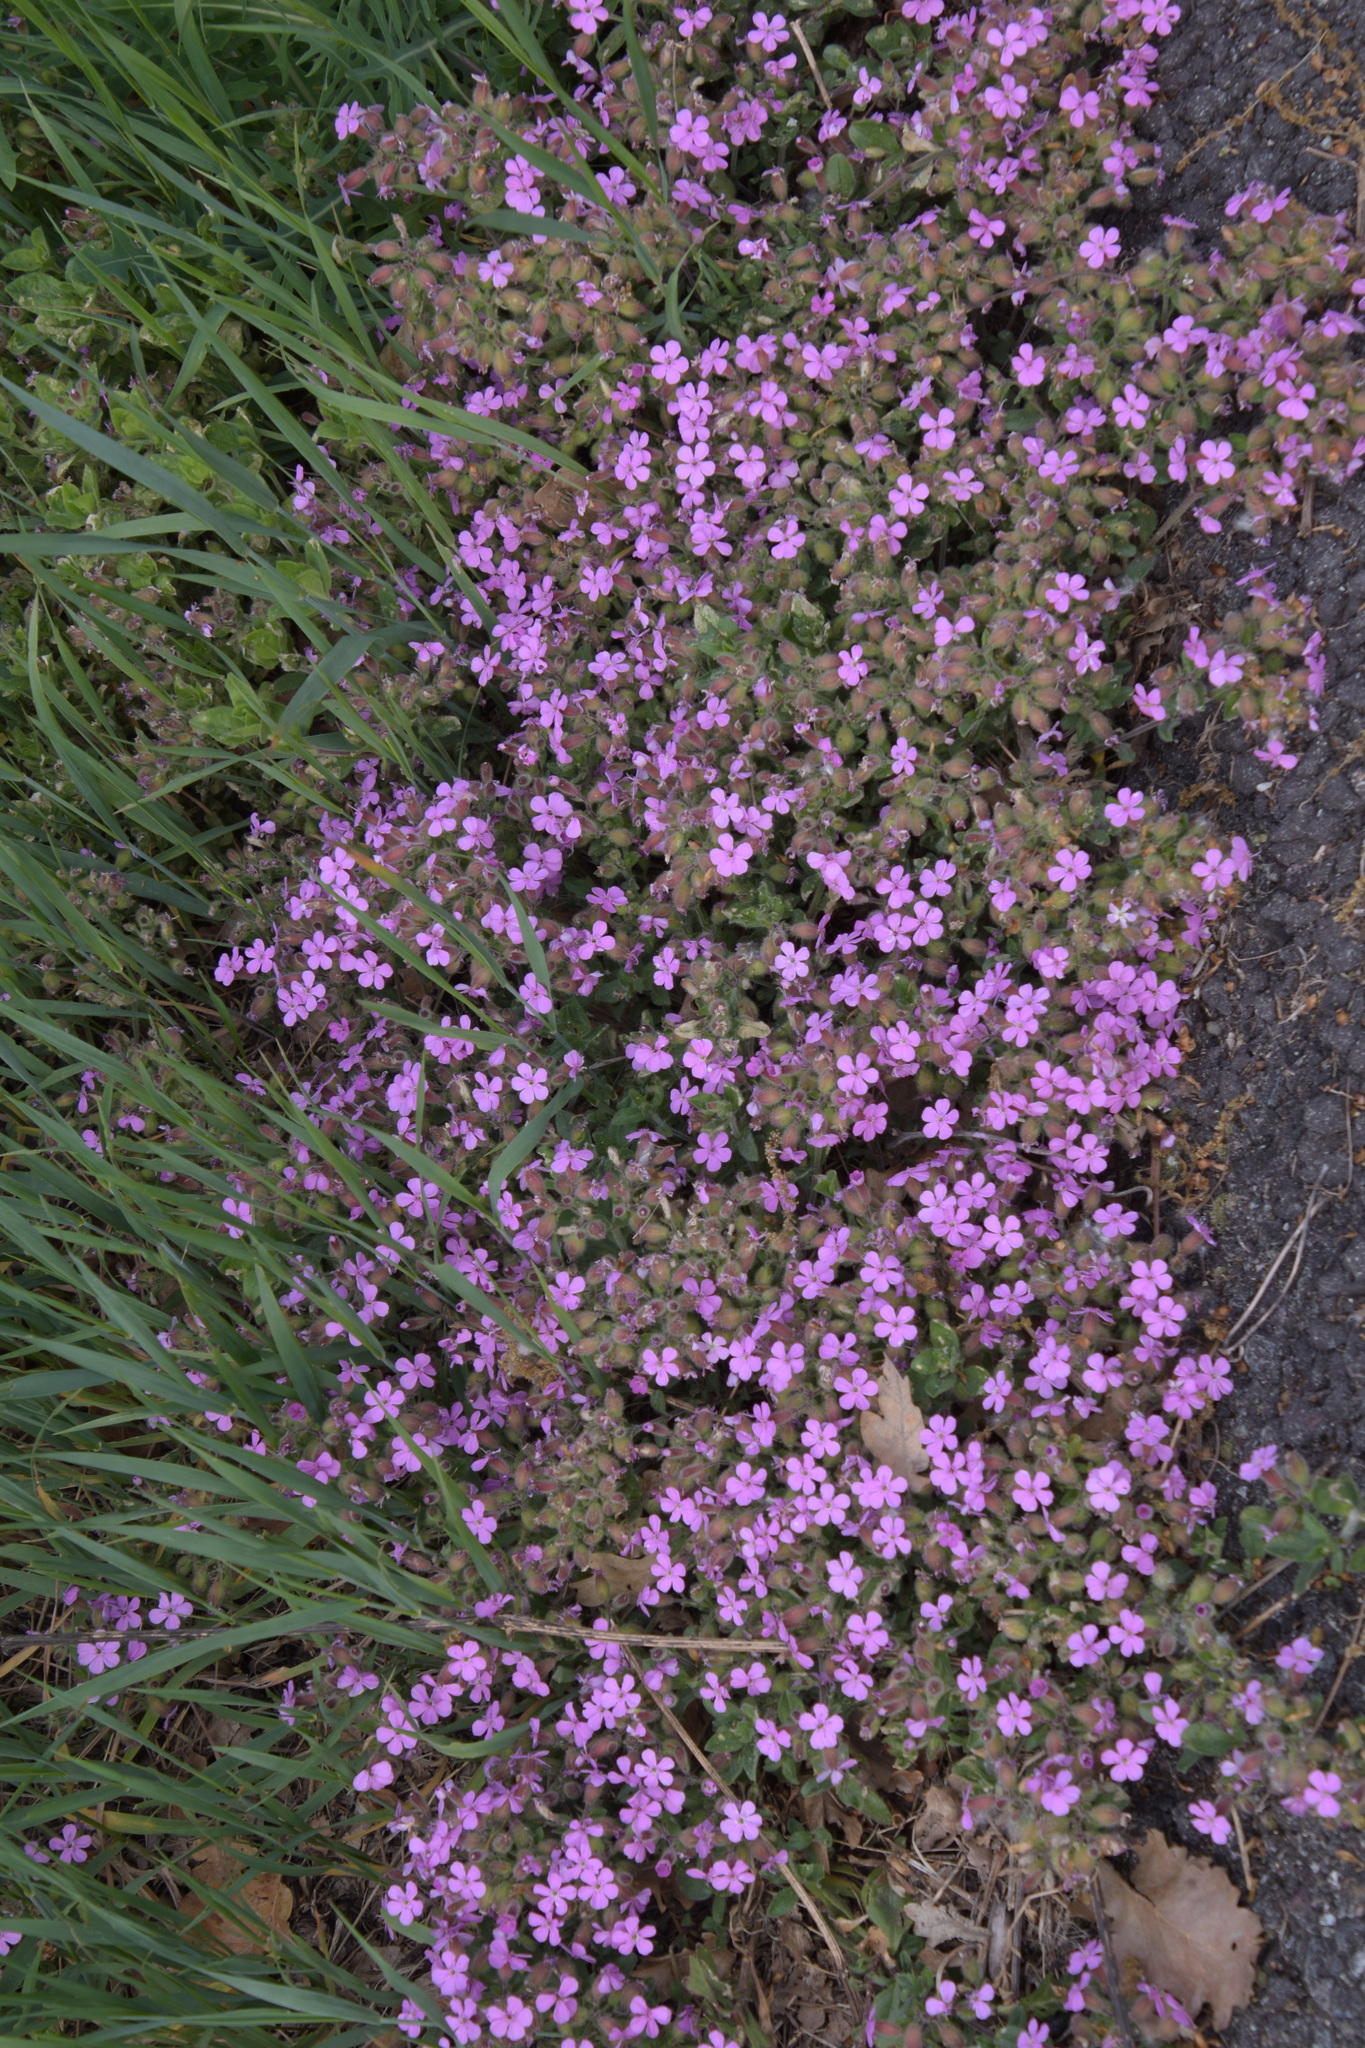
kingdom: Plantae
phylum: Tracheophyta
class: Magnoliopsida
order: Caryophyllales
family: Caryophyllaceae
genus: Saponaria
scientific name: Saponaria ocymoides
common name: Rock soapwort
